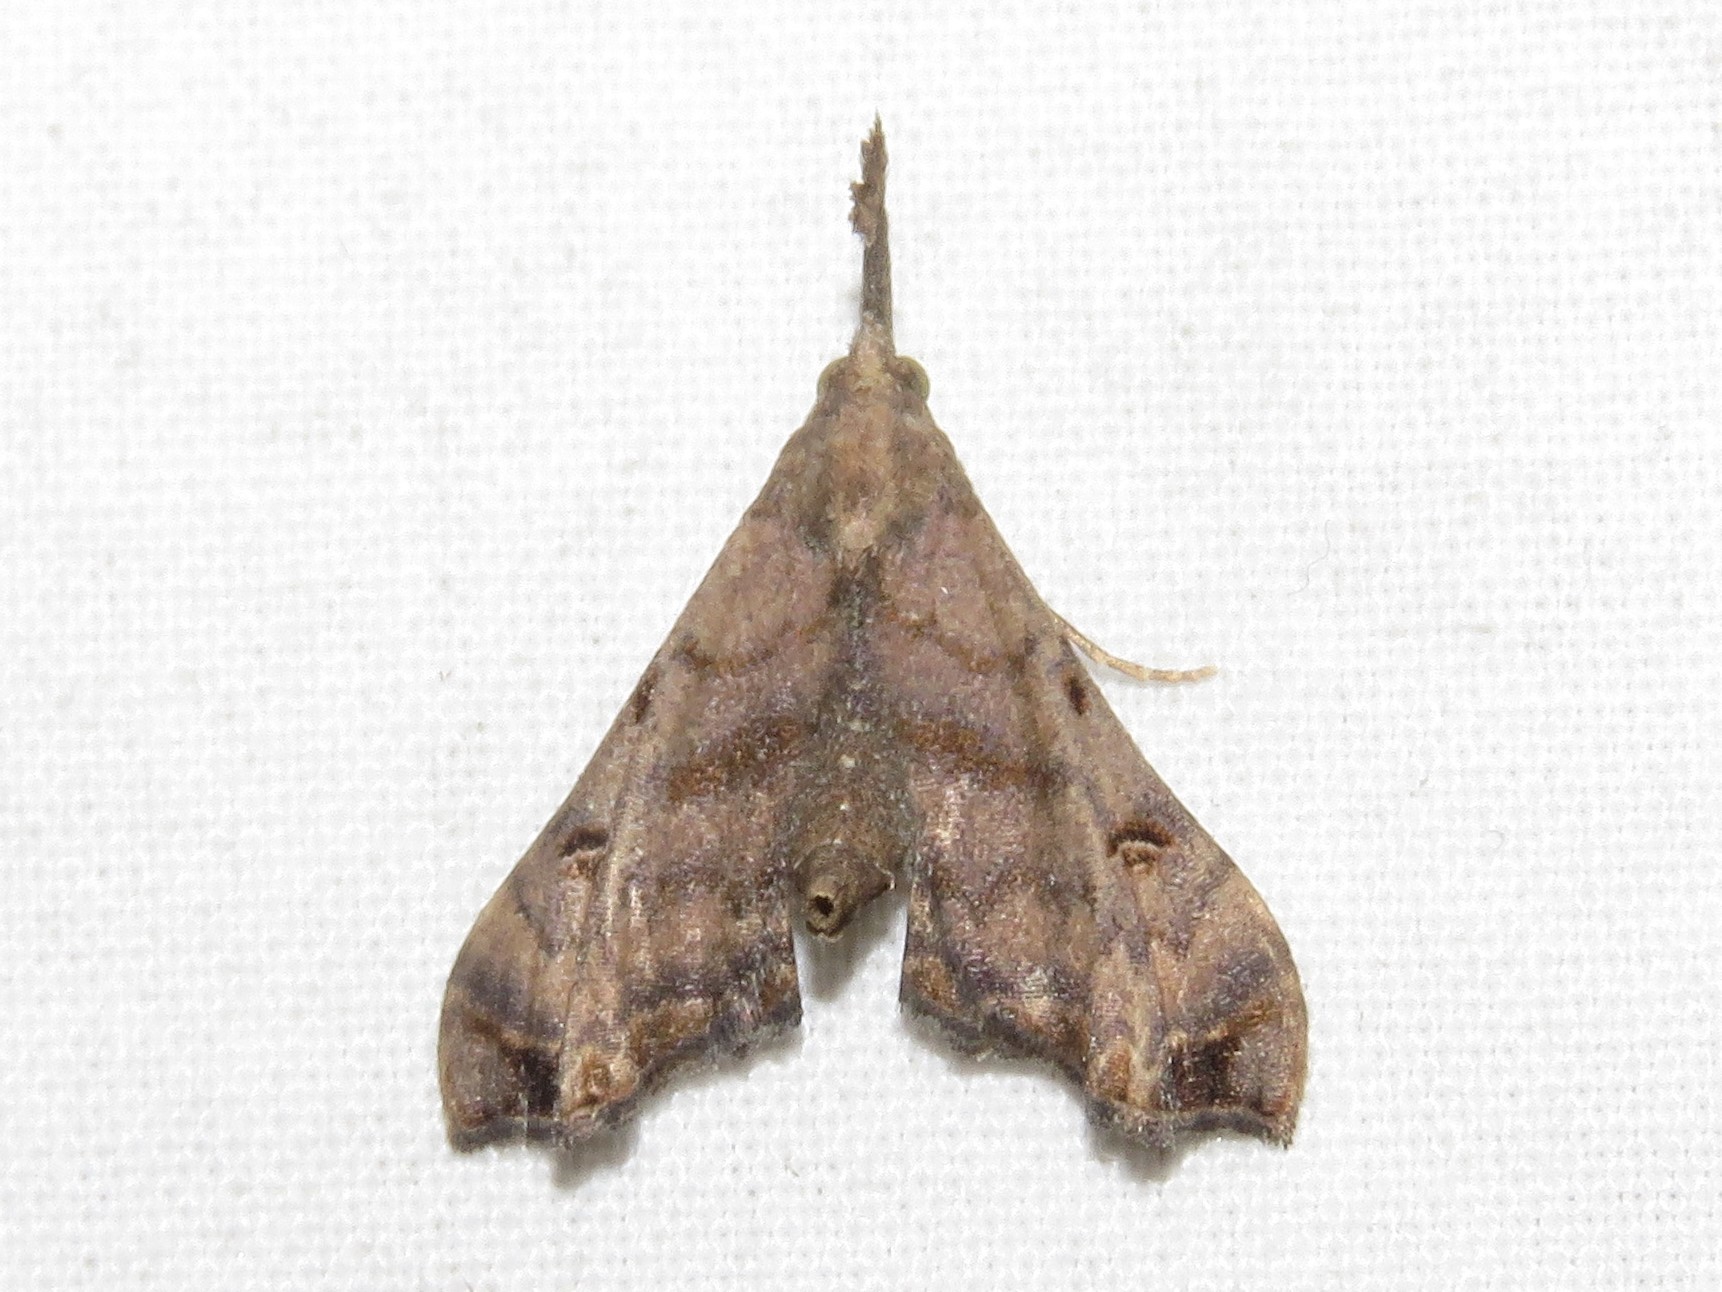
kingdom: Animalia
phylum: Arthropoda
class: Insecta
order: Lepidoptera
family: Erebidae
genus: Palthis
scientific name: Palthis asopialis
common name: Faint-spotted palthis moth
